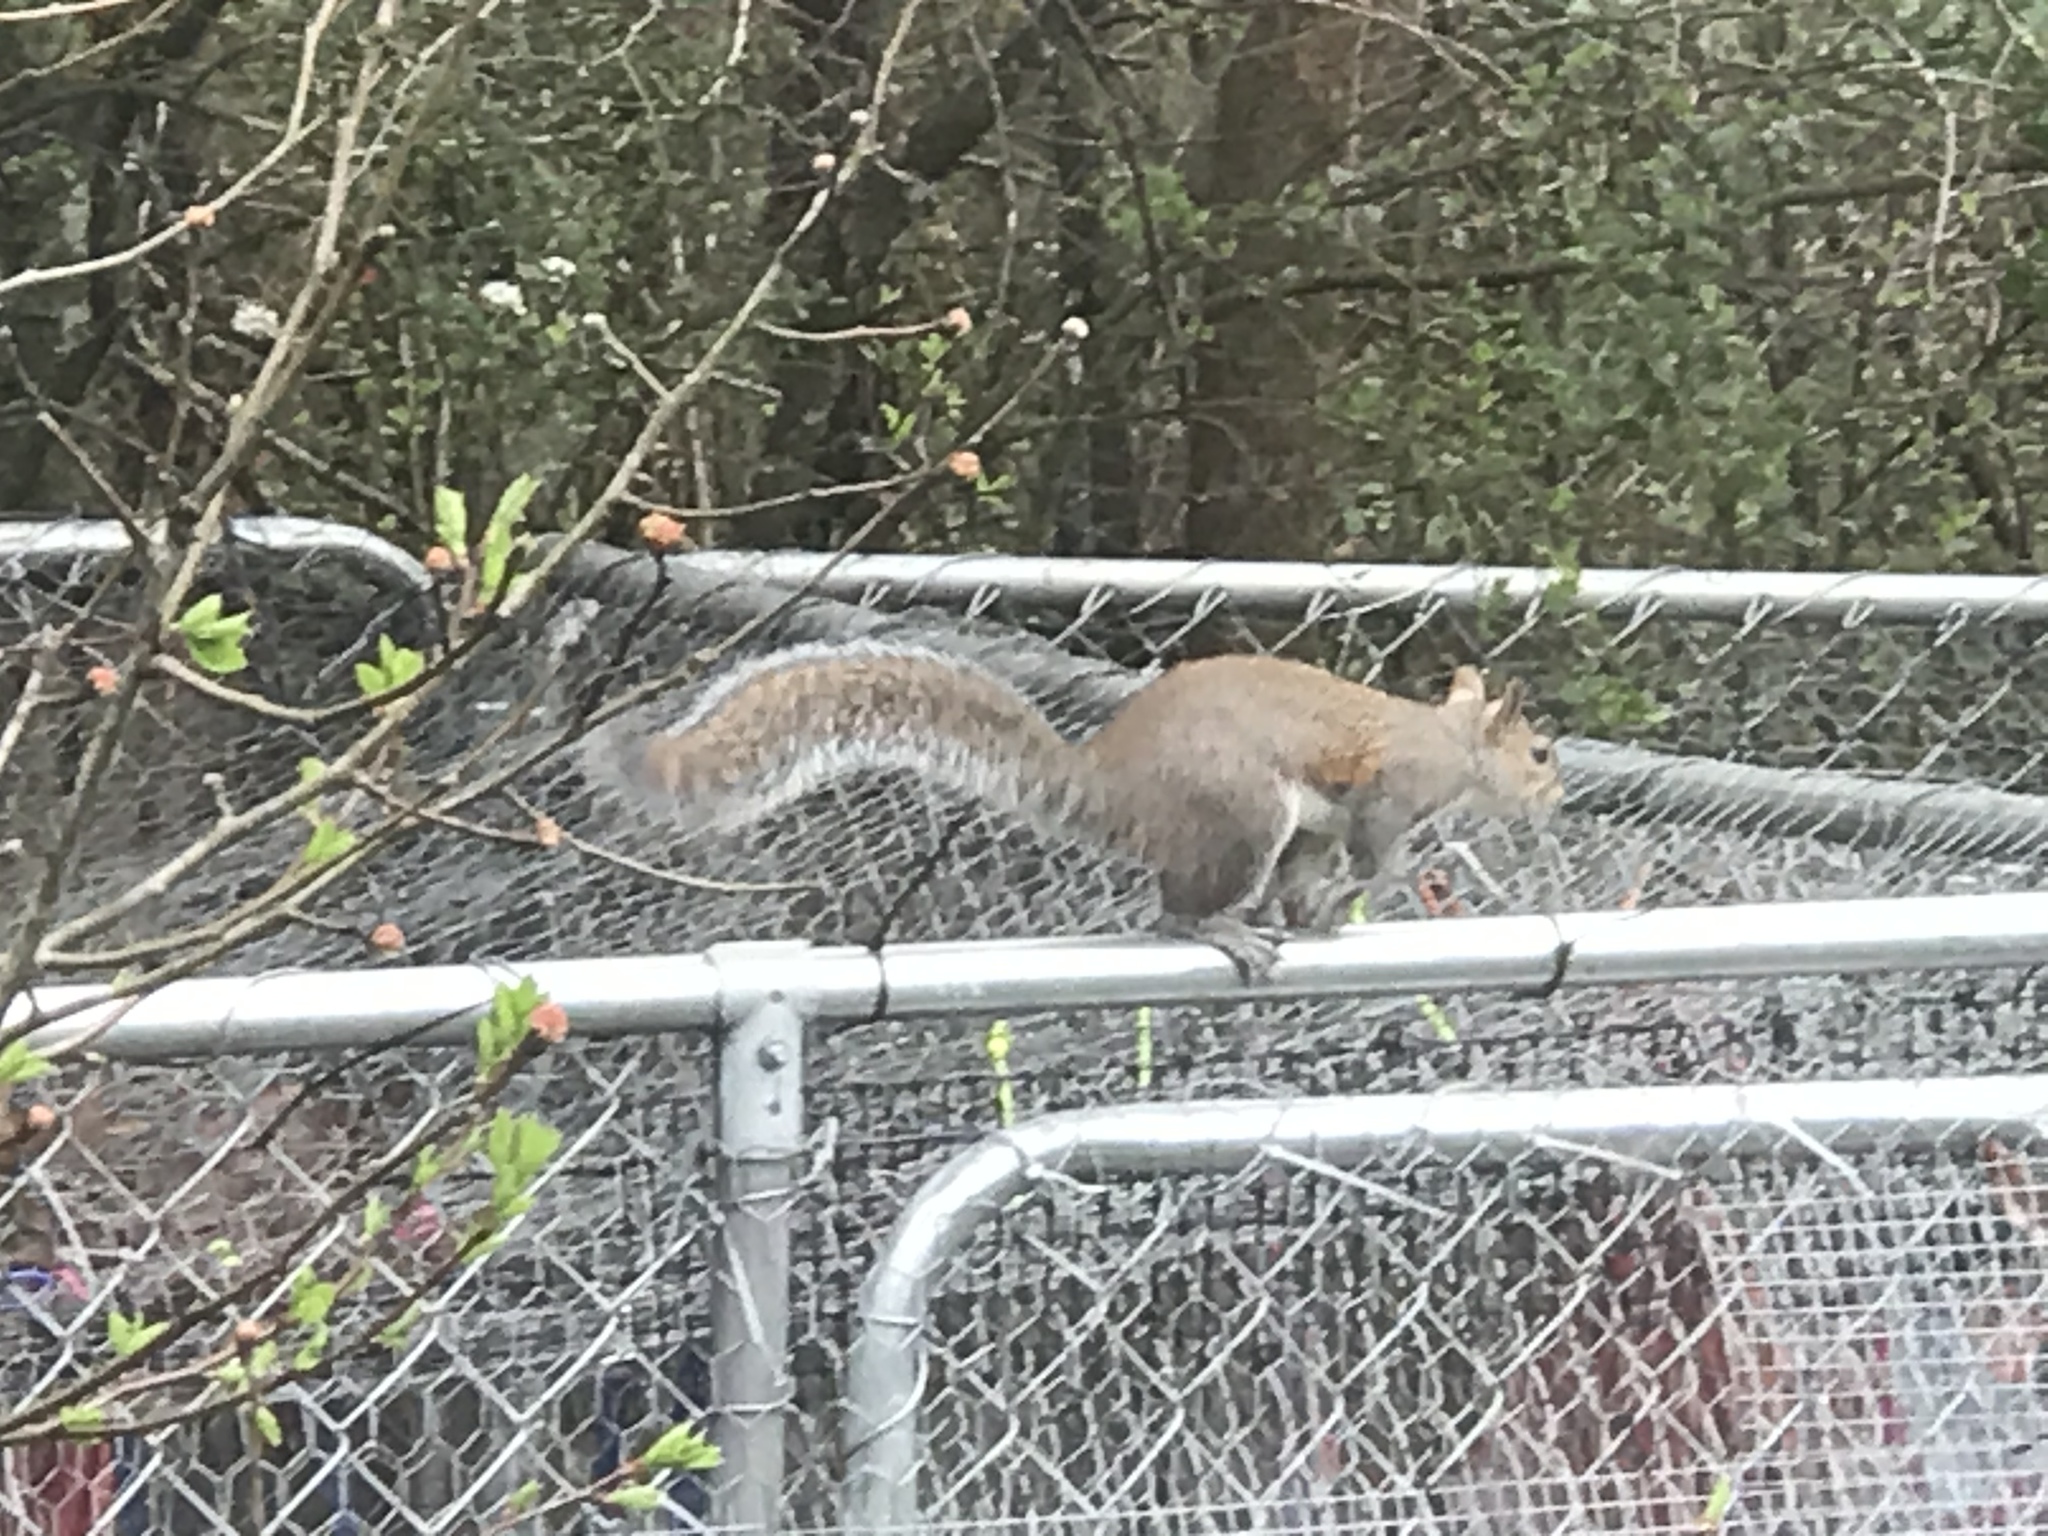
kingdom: Animalia
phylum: Chordata
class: Mammalia
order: Rodentia
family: Sciuridae
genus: Sciurus
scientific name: Sciurus carolinensis
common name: Eastern gray squirrel
